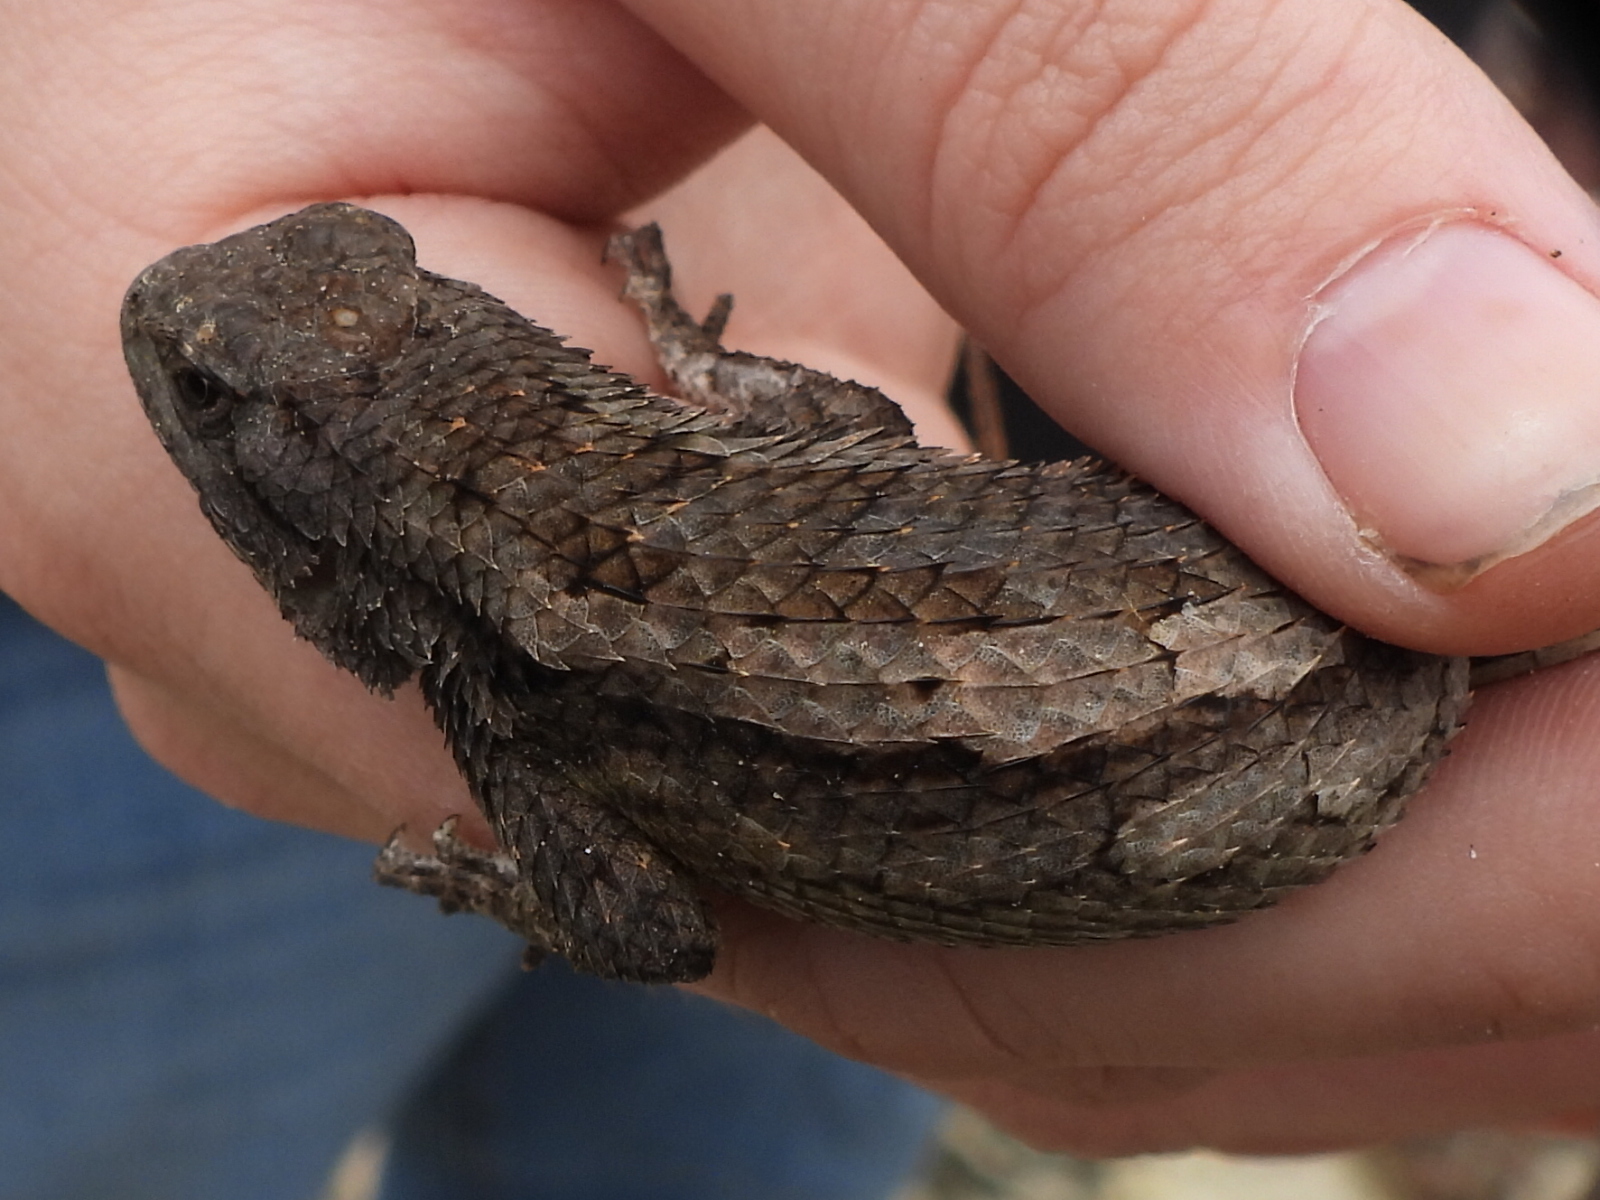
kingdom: Animalia
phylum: Chordata
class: Squamata
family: Phrynosomatidae
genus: Sceloporus
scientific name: Sceloporus olivaceus
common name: Texas spiny lizard
